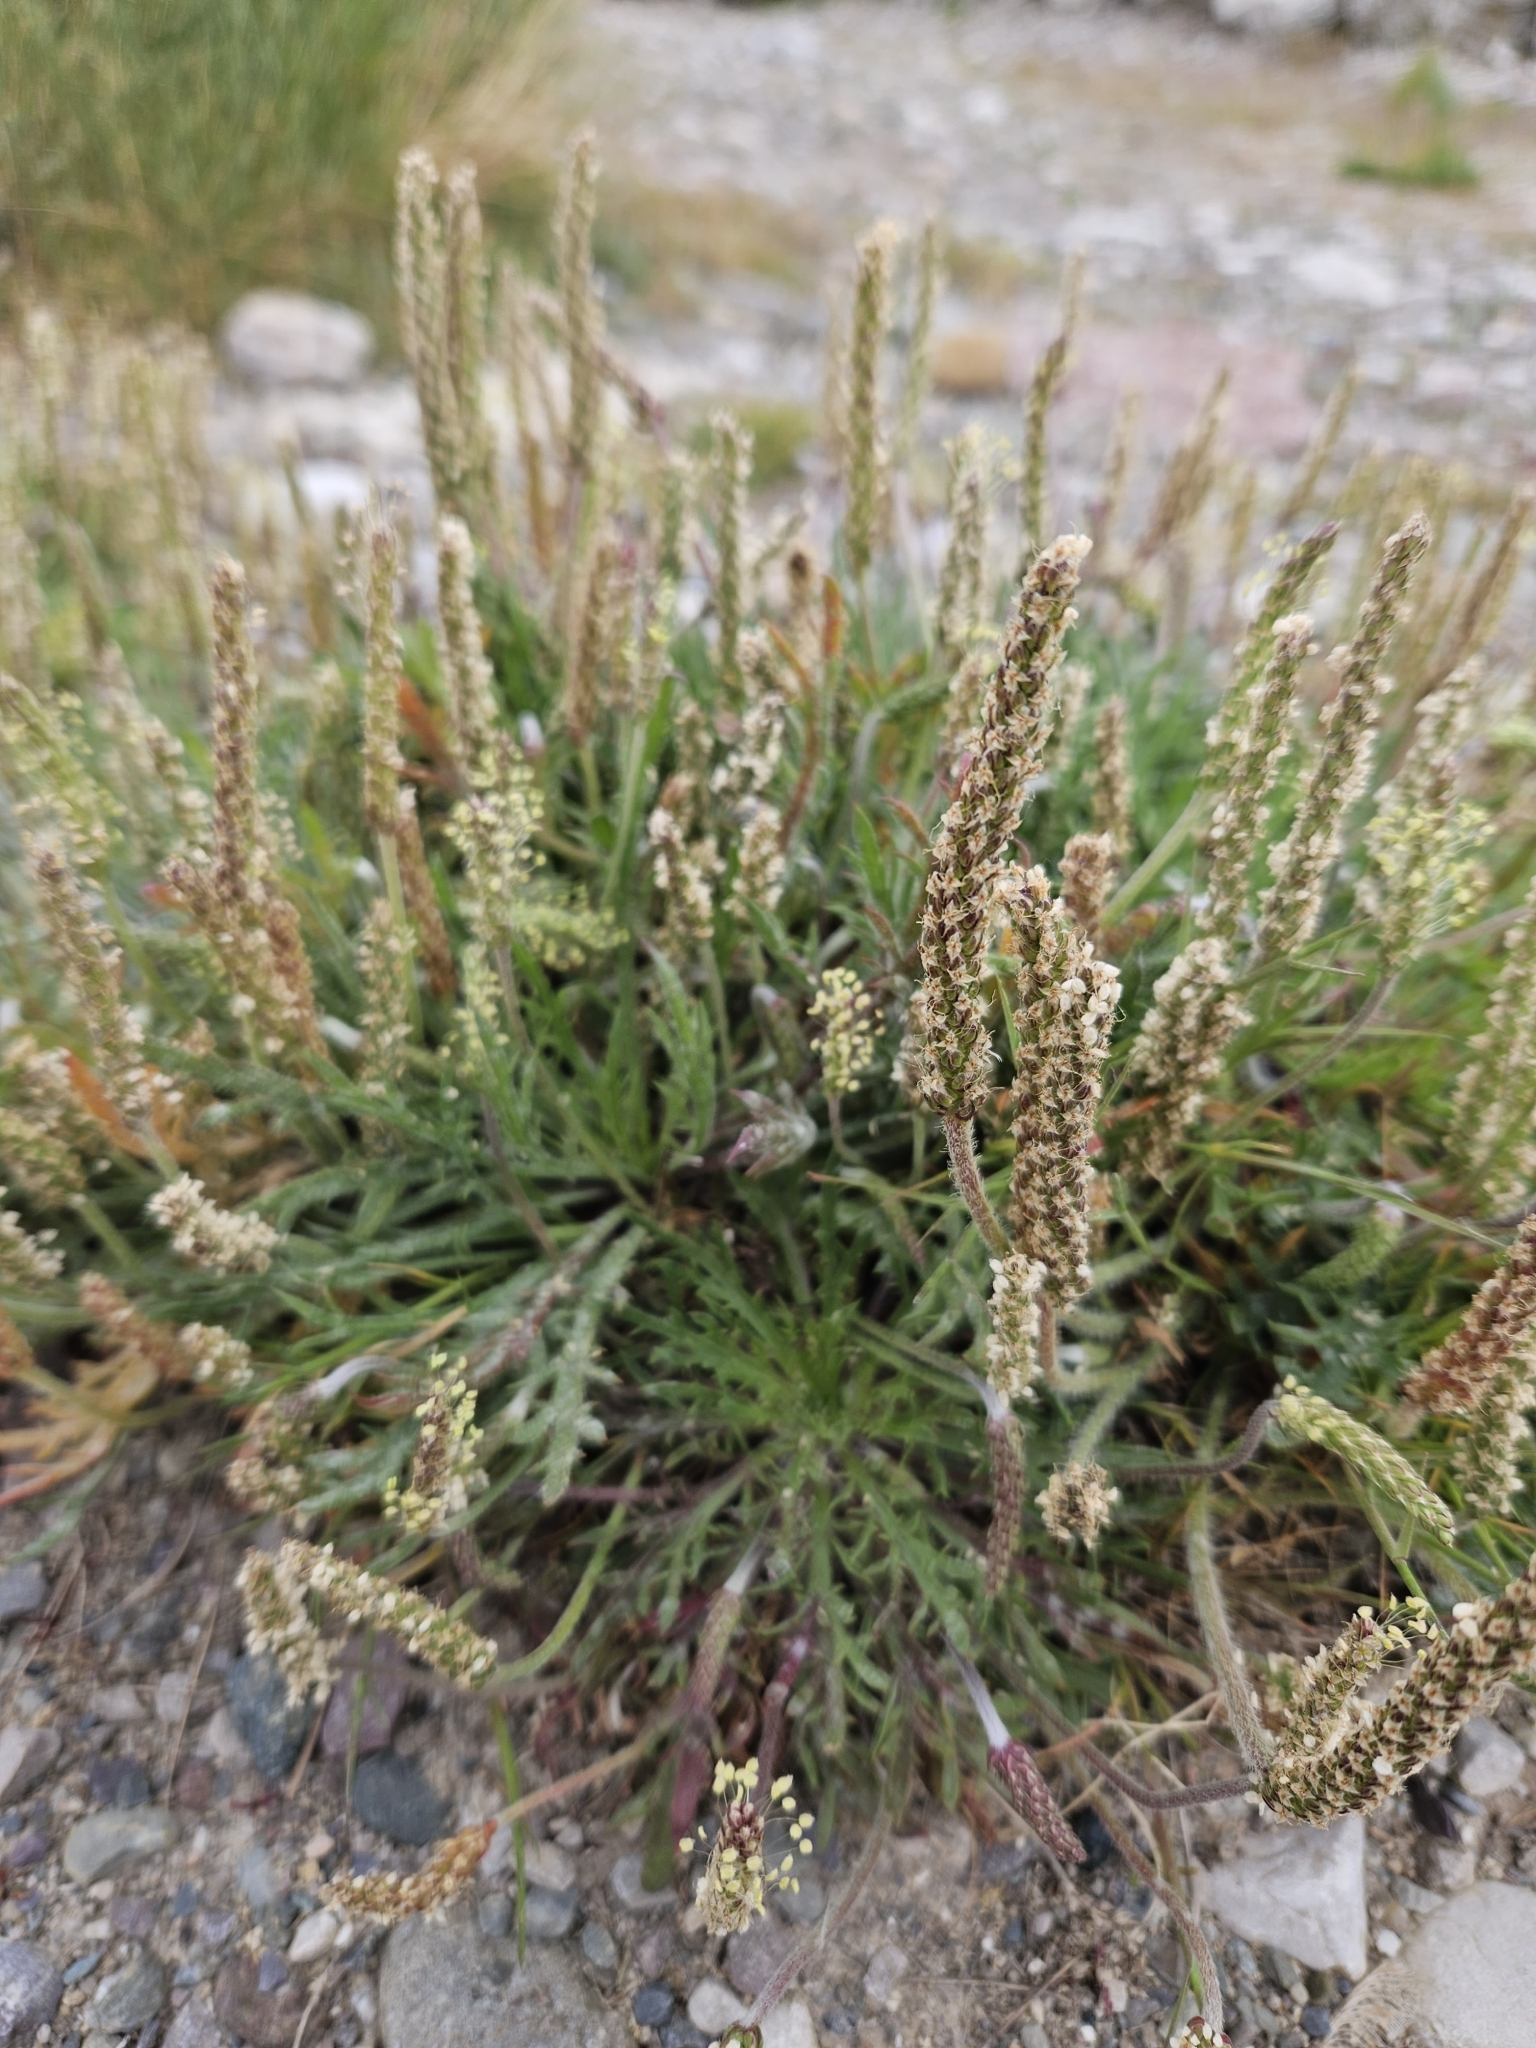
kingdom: Plantae
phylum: Tracheophyta
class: Magnoliopsida
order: Lamiales
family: Plantaginaceae
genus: Plantago
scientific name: Plantago coronopus
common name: Buck's-horn plantain
